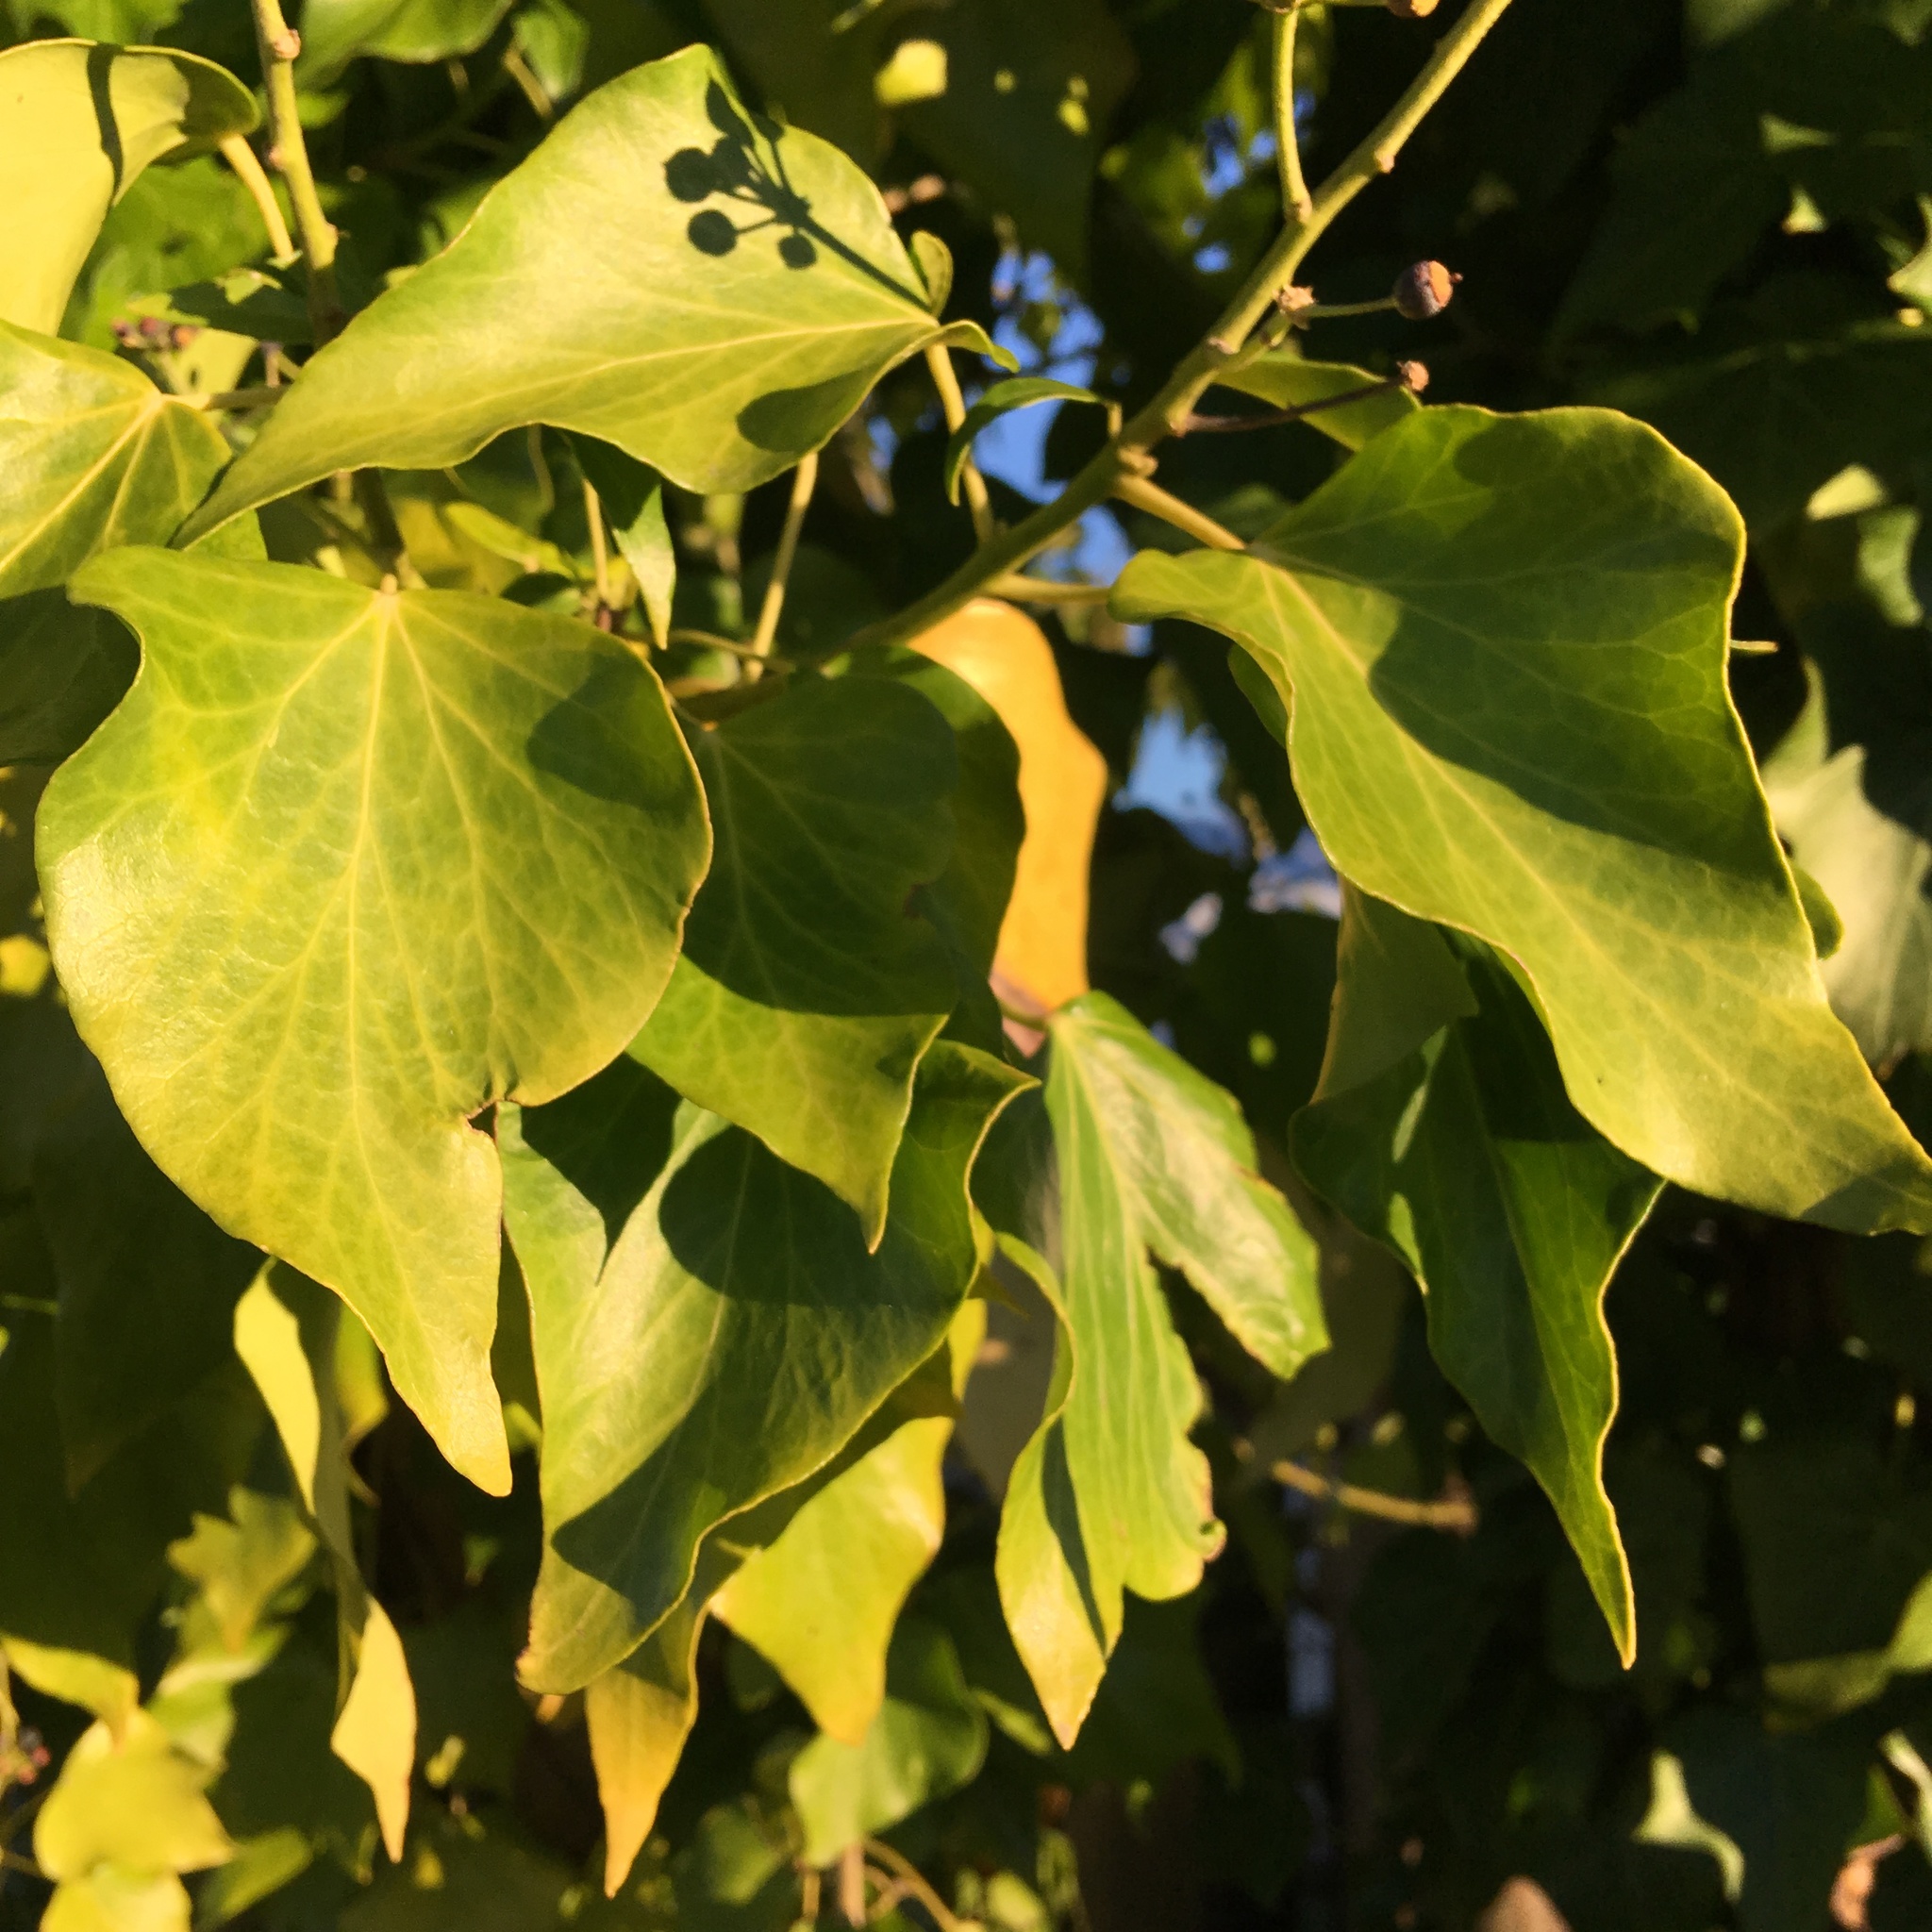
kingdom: Plantae
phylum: Tracheophyta
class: Magnoliopsida
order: Apiales
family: Araliaceae
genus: Hedera
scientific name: Hedera helix
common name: Ivy
